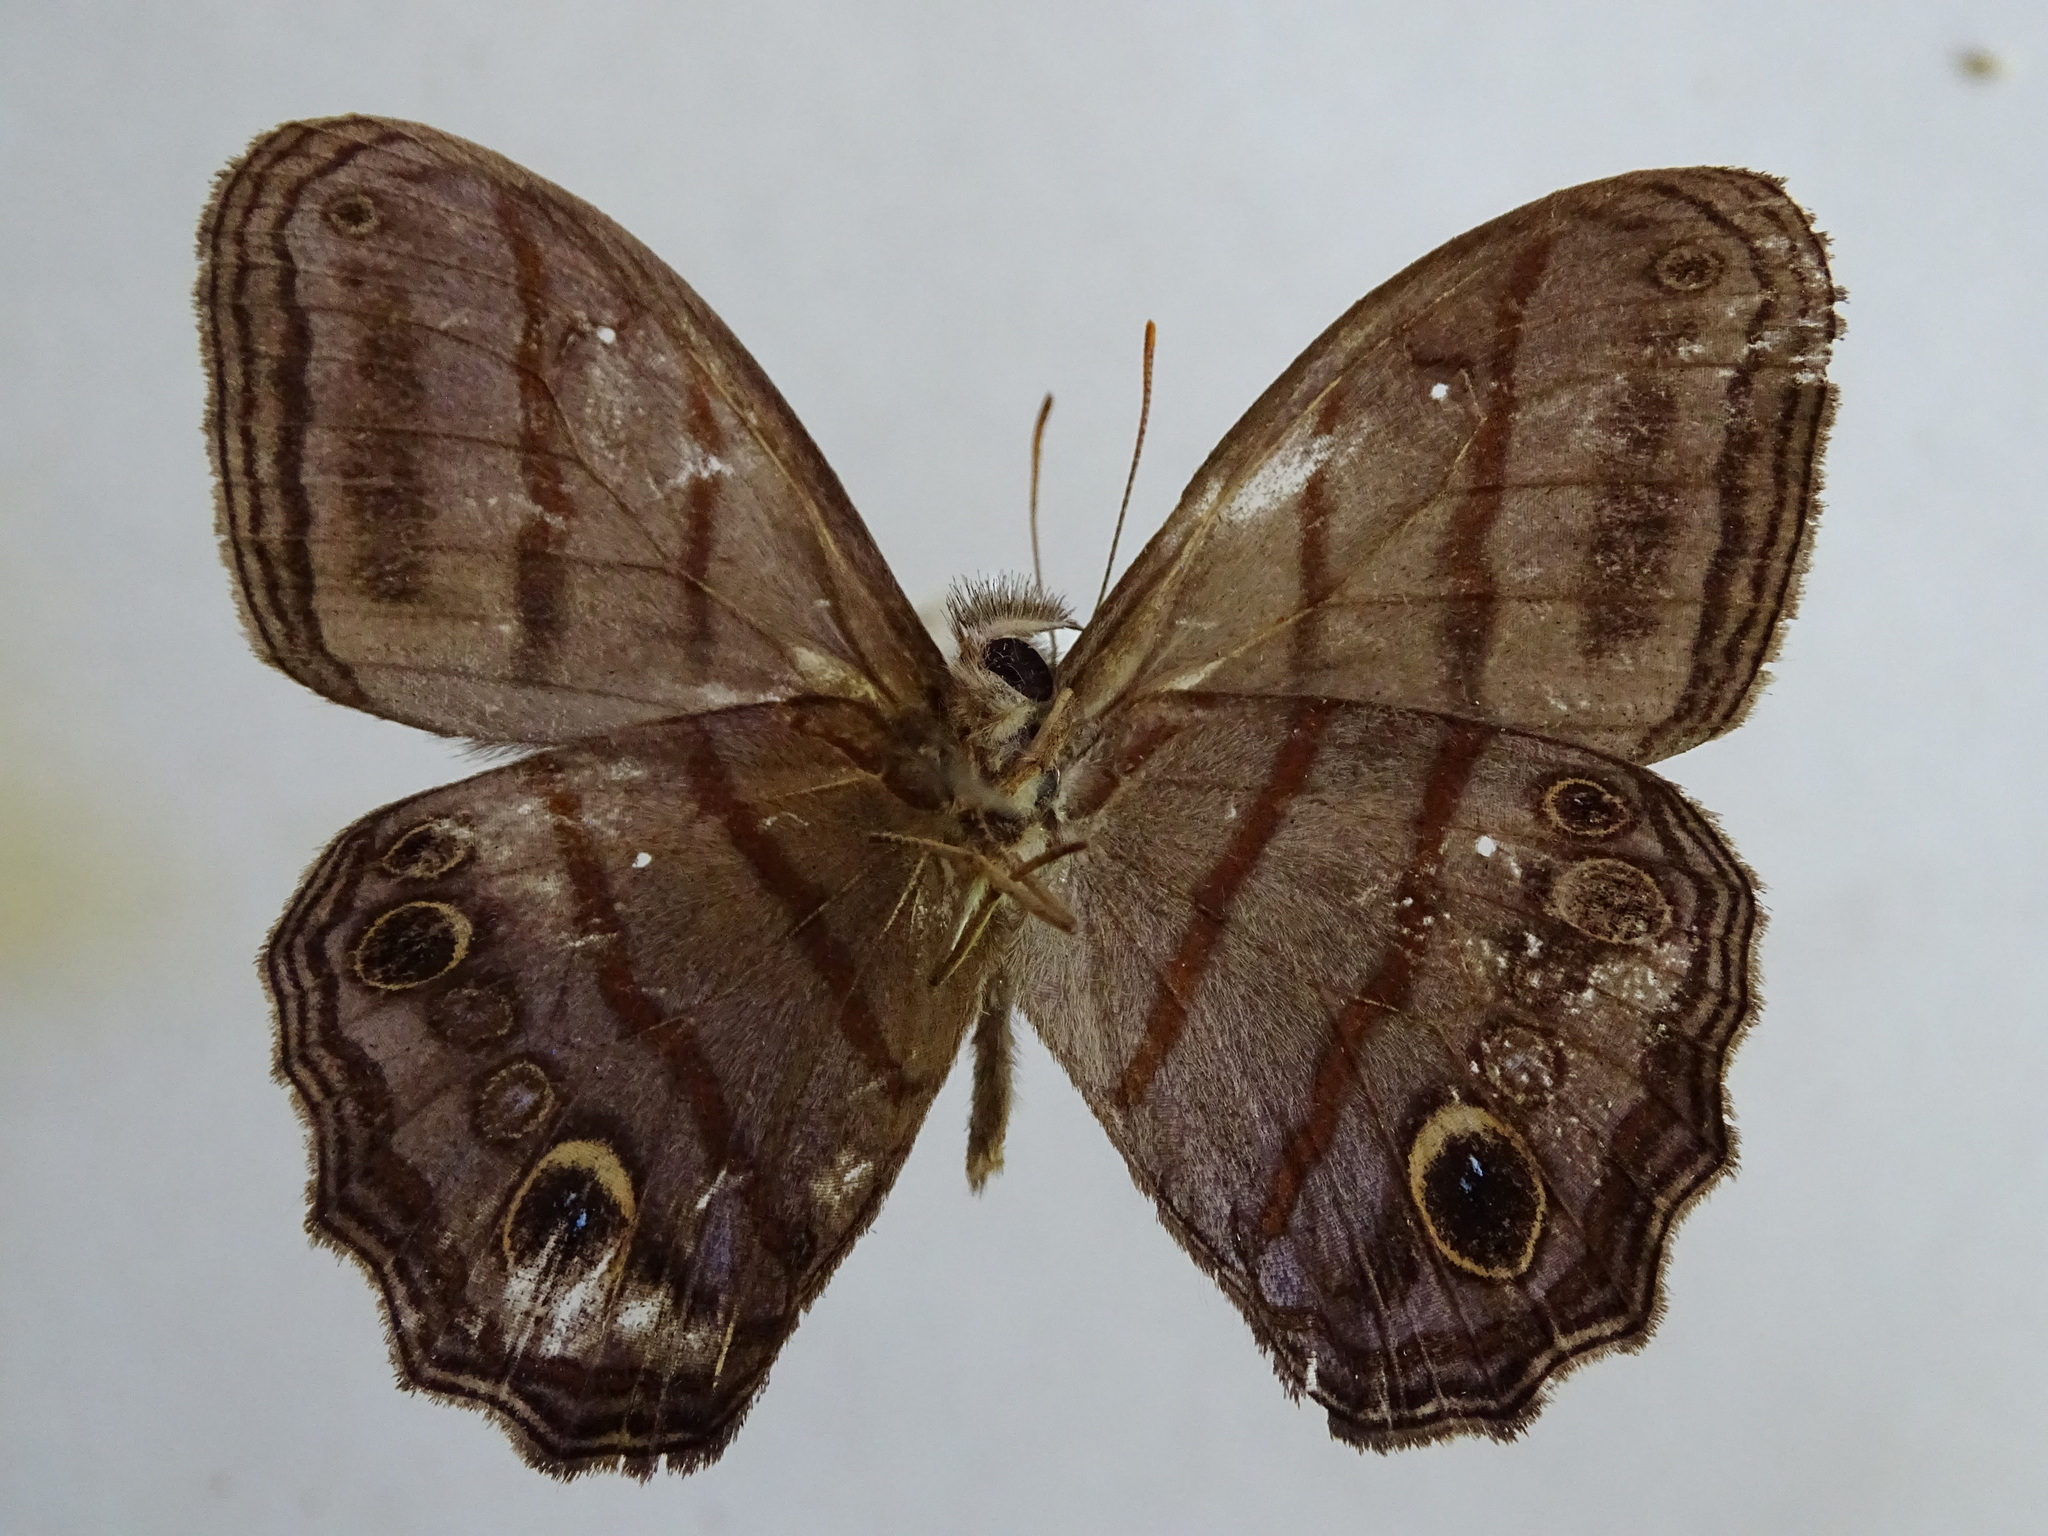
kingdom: Animalia
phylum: Arthropoda
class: Insecta
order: Lepidoptera
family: Nymphalidae
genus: Magneuptychia
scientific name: Magneuptychia libye
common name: Blue-gray satyr
